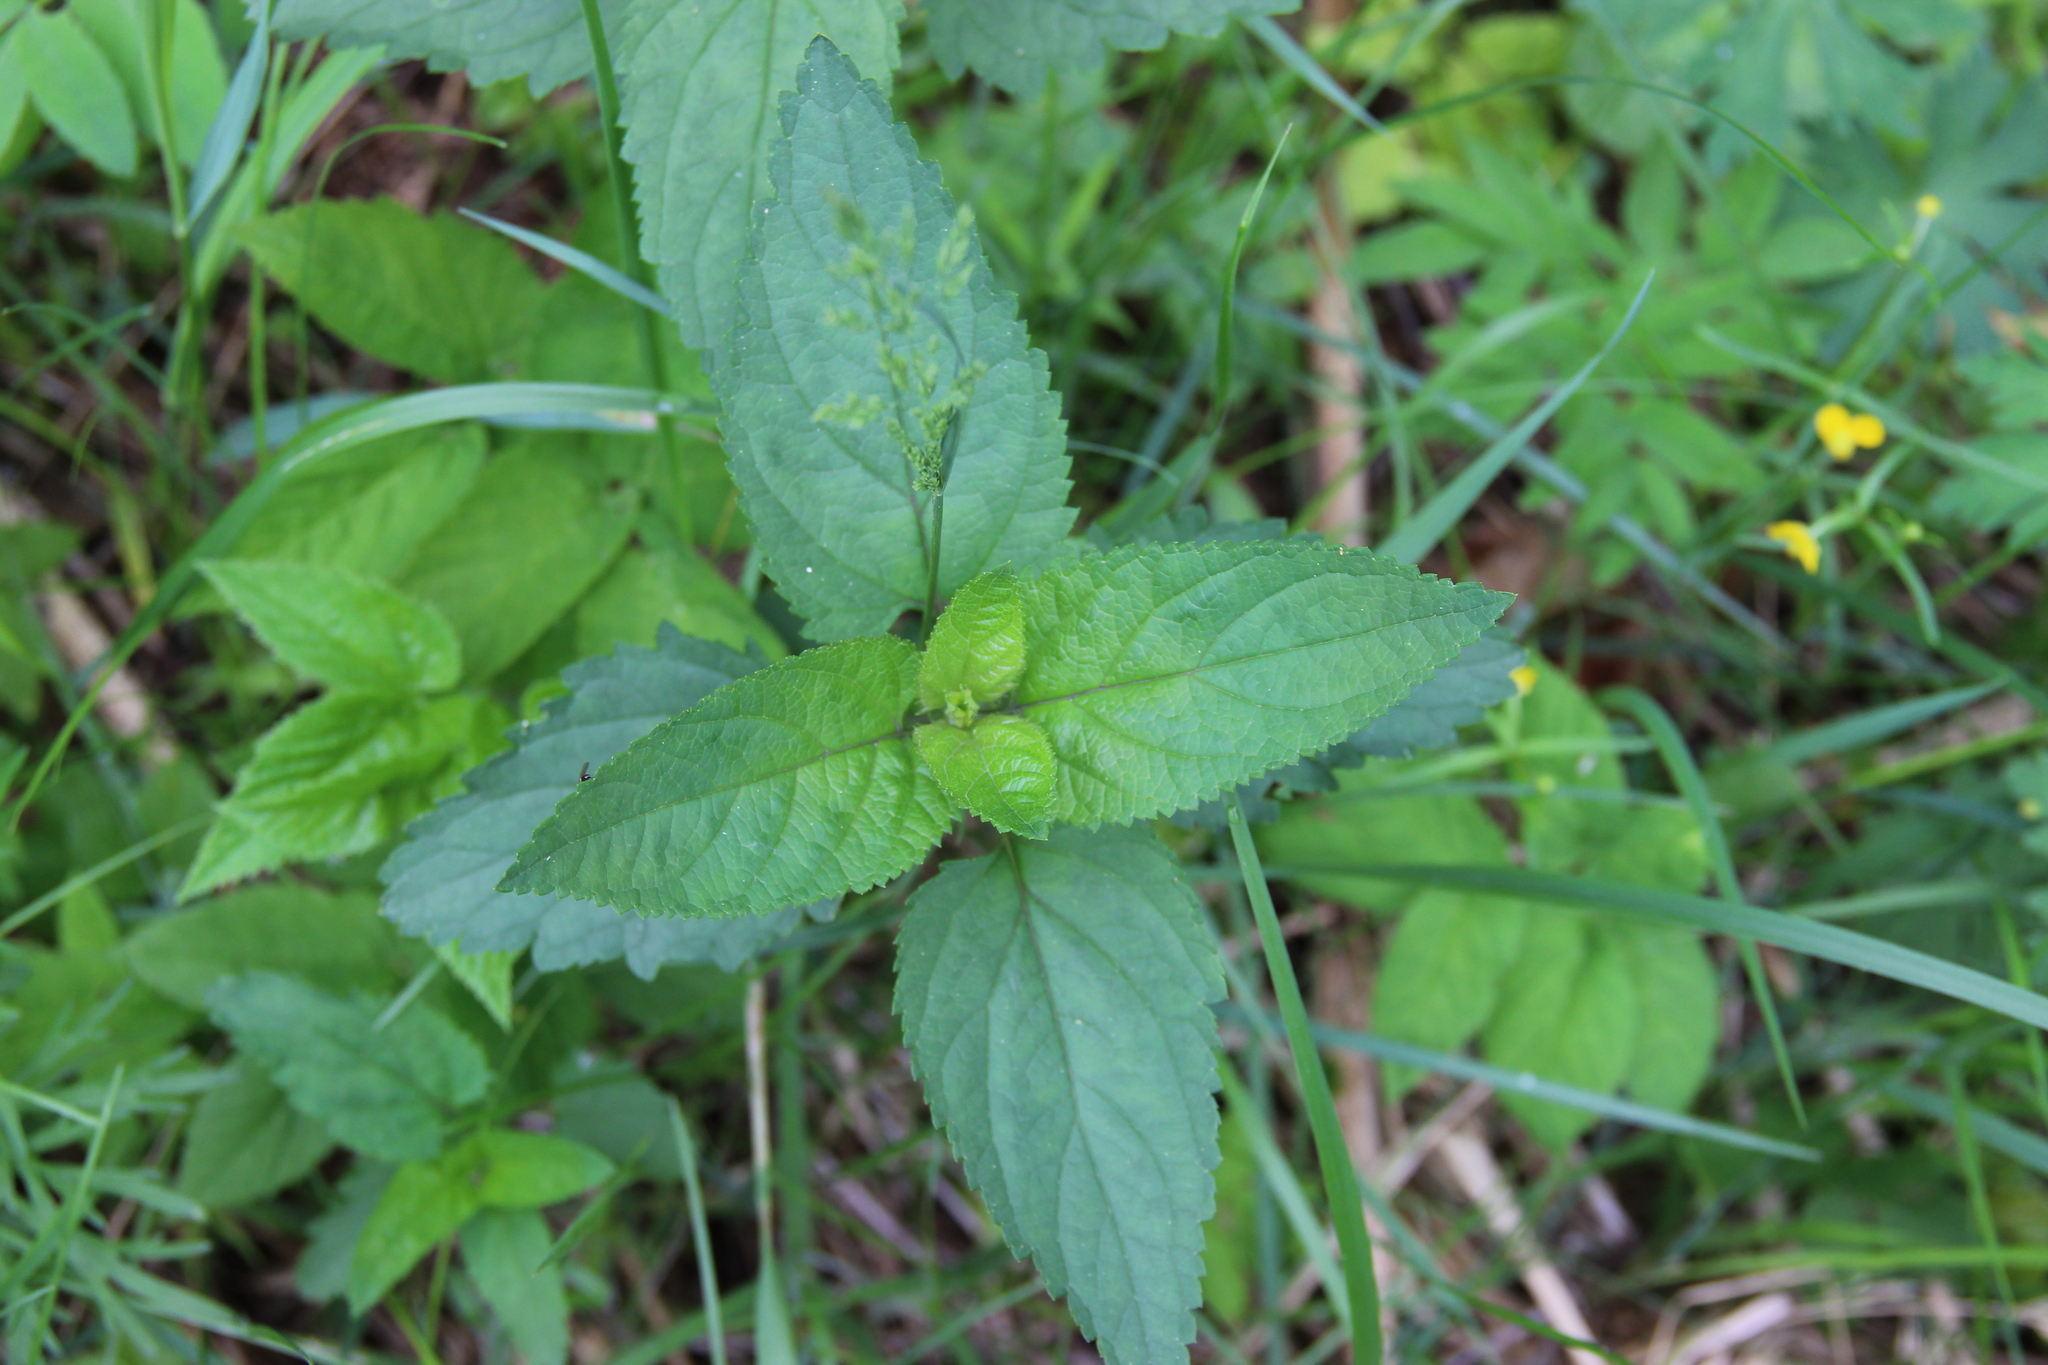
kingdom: Plantae
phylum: Tracheophyta
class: Magnoliopsida
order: Lamiales
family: Scrophulariaceae
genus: Scrophularia
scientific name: Scrophularia nodosa
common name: Common figwort
